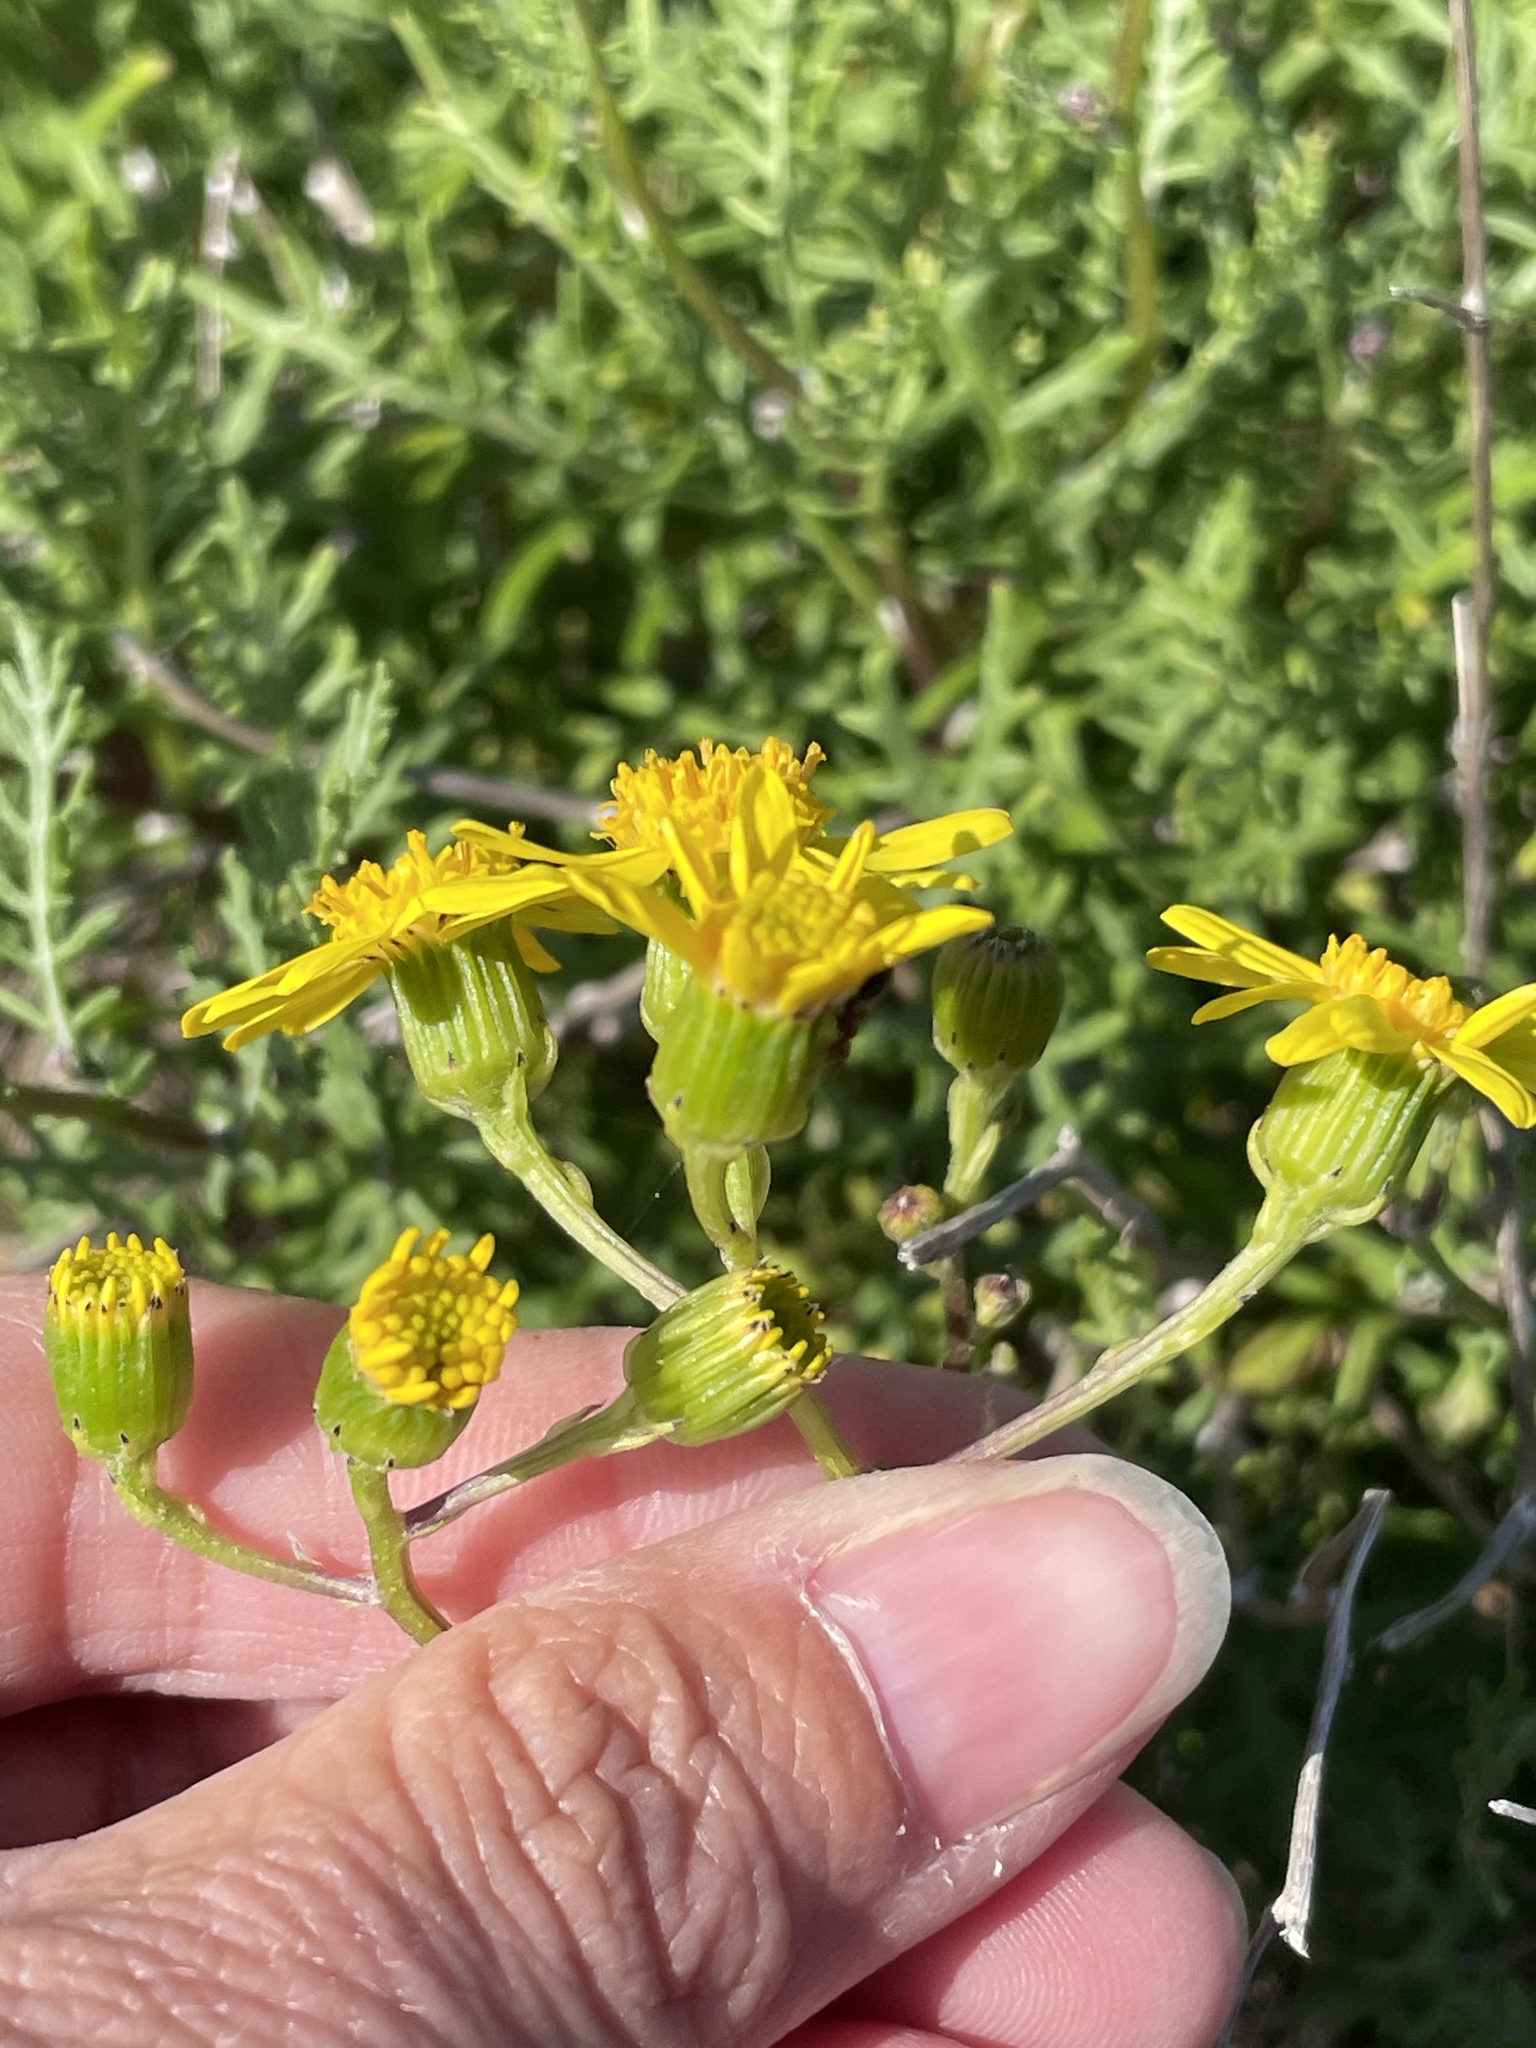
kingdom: Plantae
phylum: Tracheophyta
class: Magnoliopsida
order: Asterales
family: Asteraceae
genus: Senecio
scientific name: Senecio lyonii
